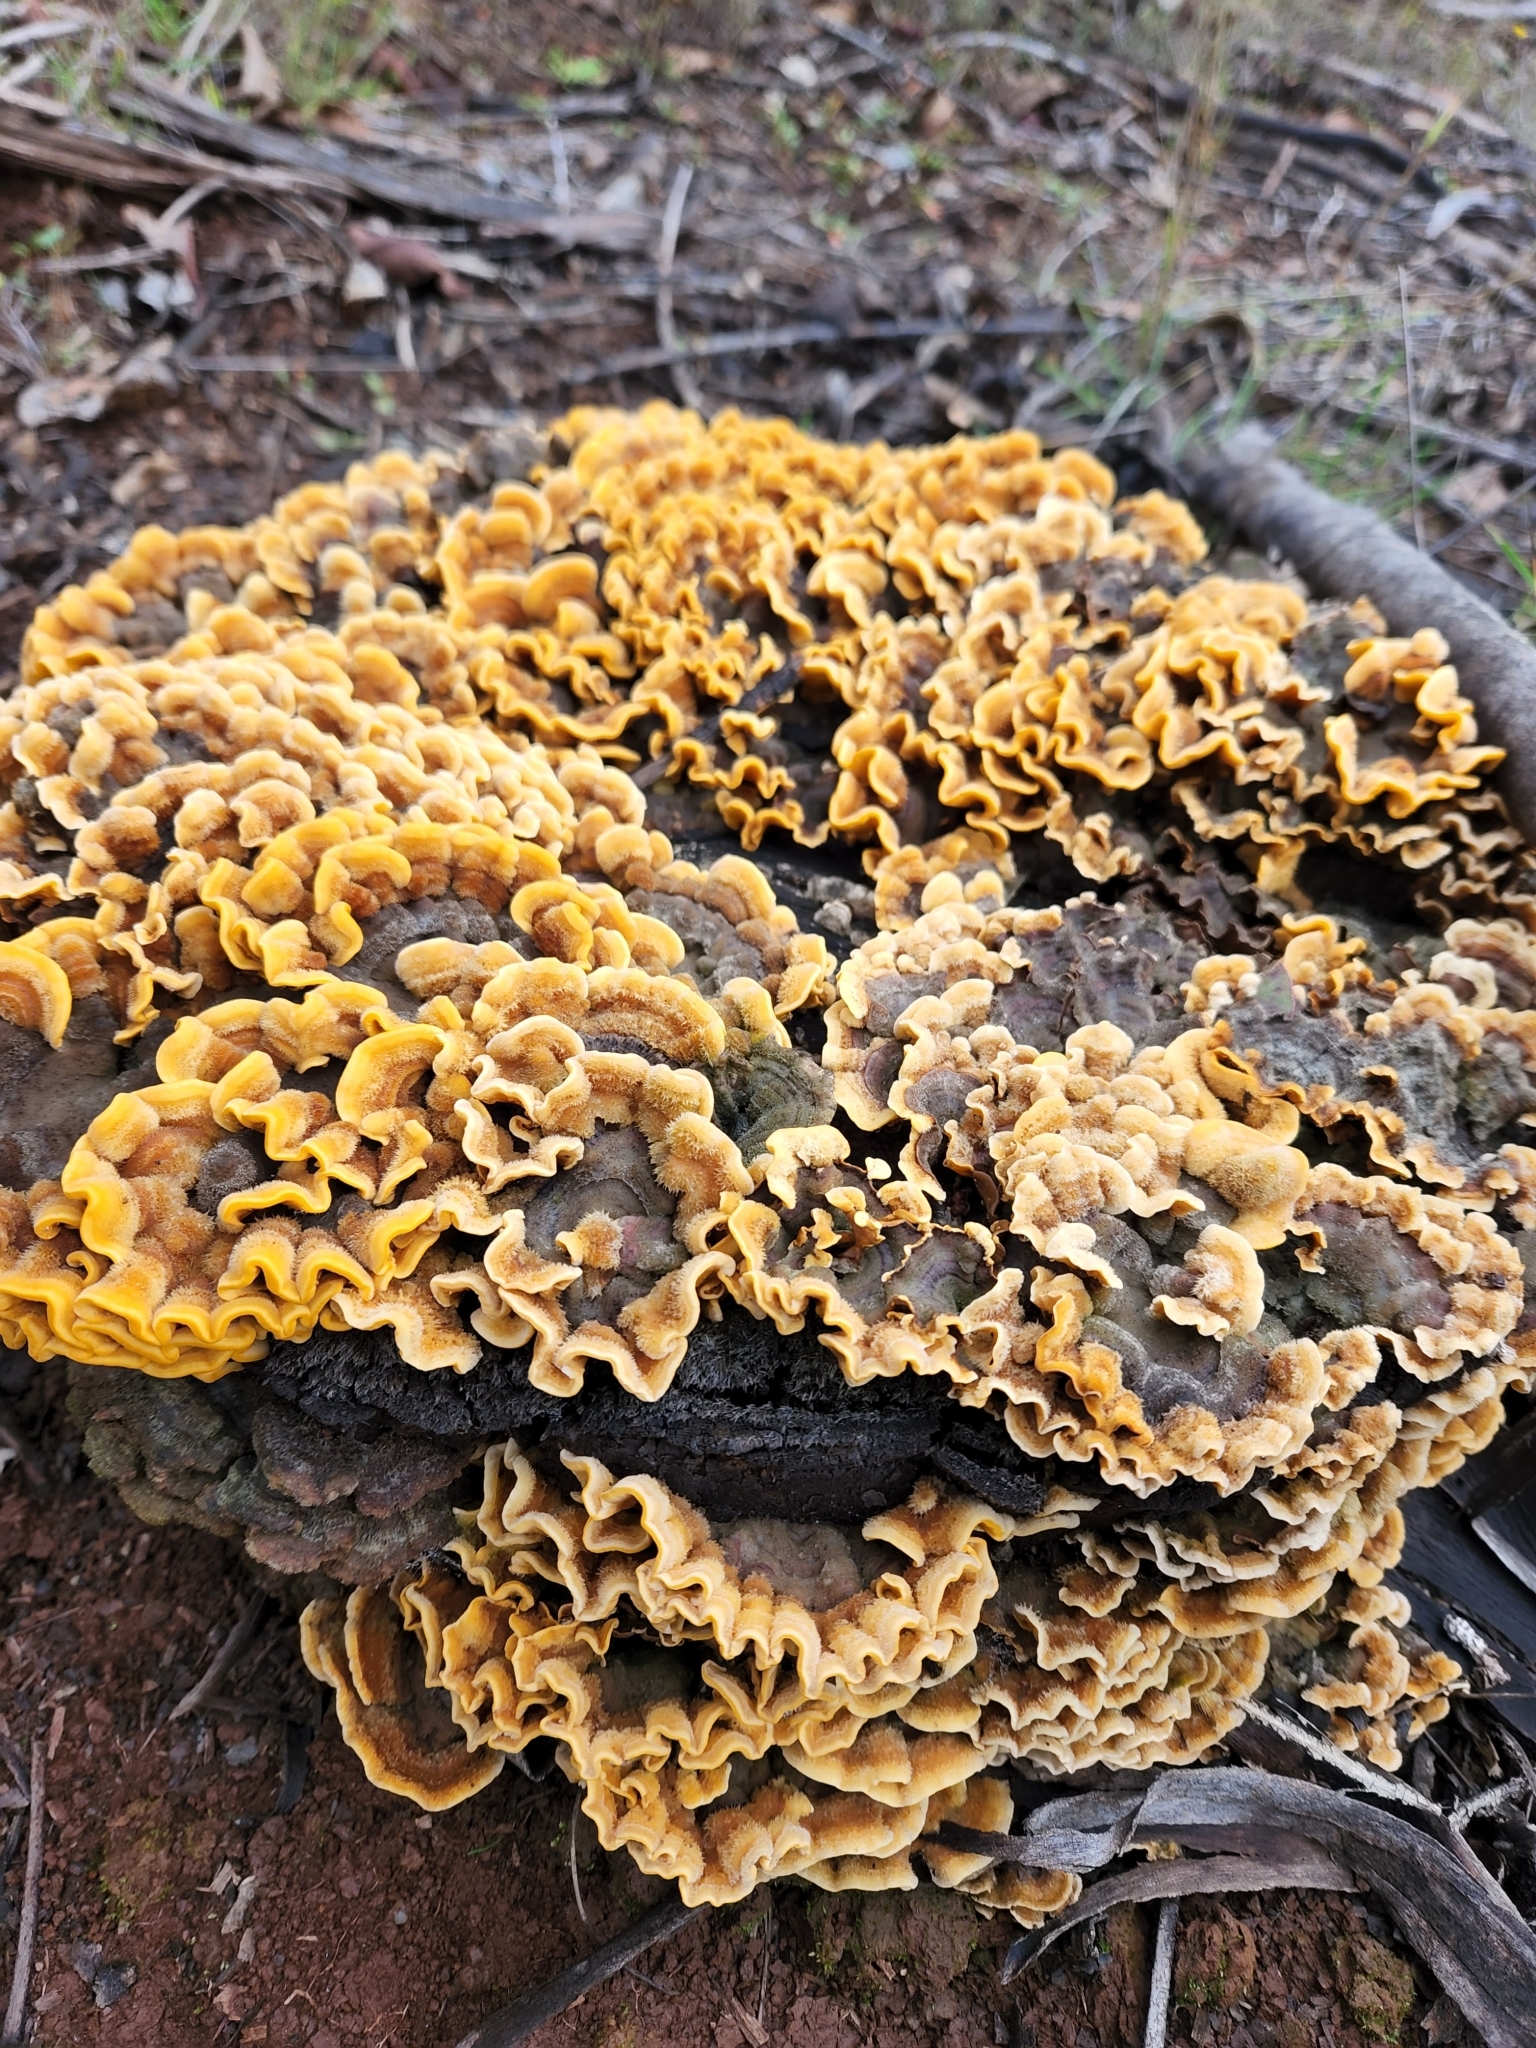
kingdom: Fungi
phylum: Basidiomycota
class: Agaricomycetes
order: Russulales
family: Stereaceae
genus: Stereum
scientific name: Stereum hirsutum
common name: Hairy curtain crust
